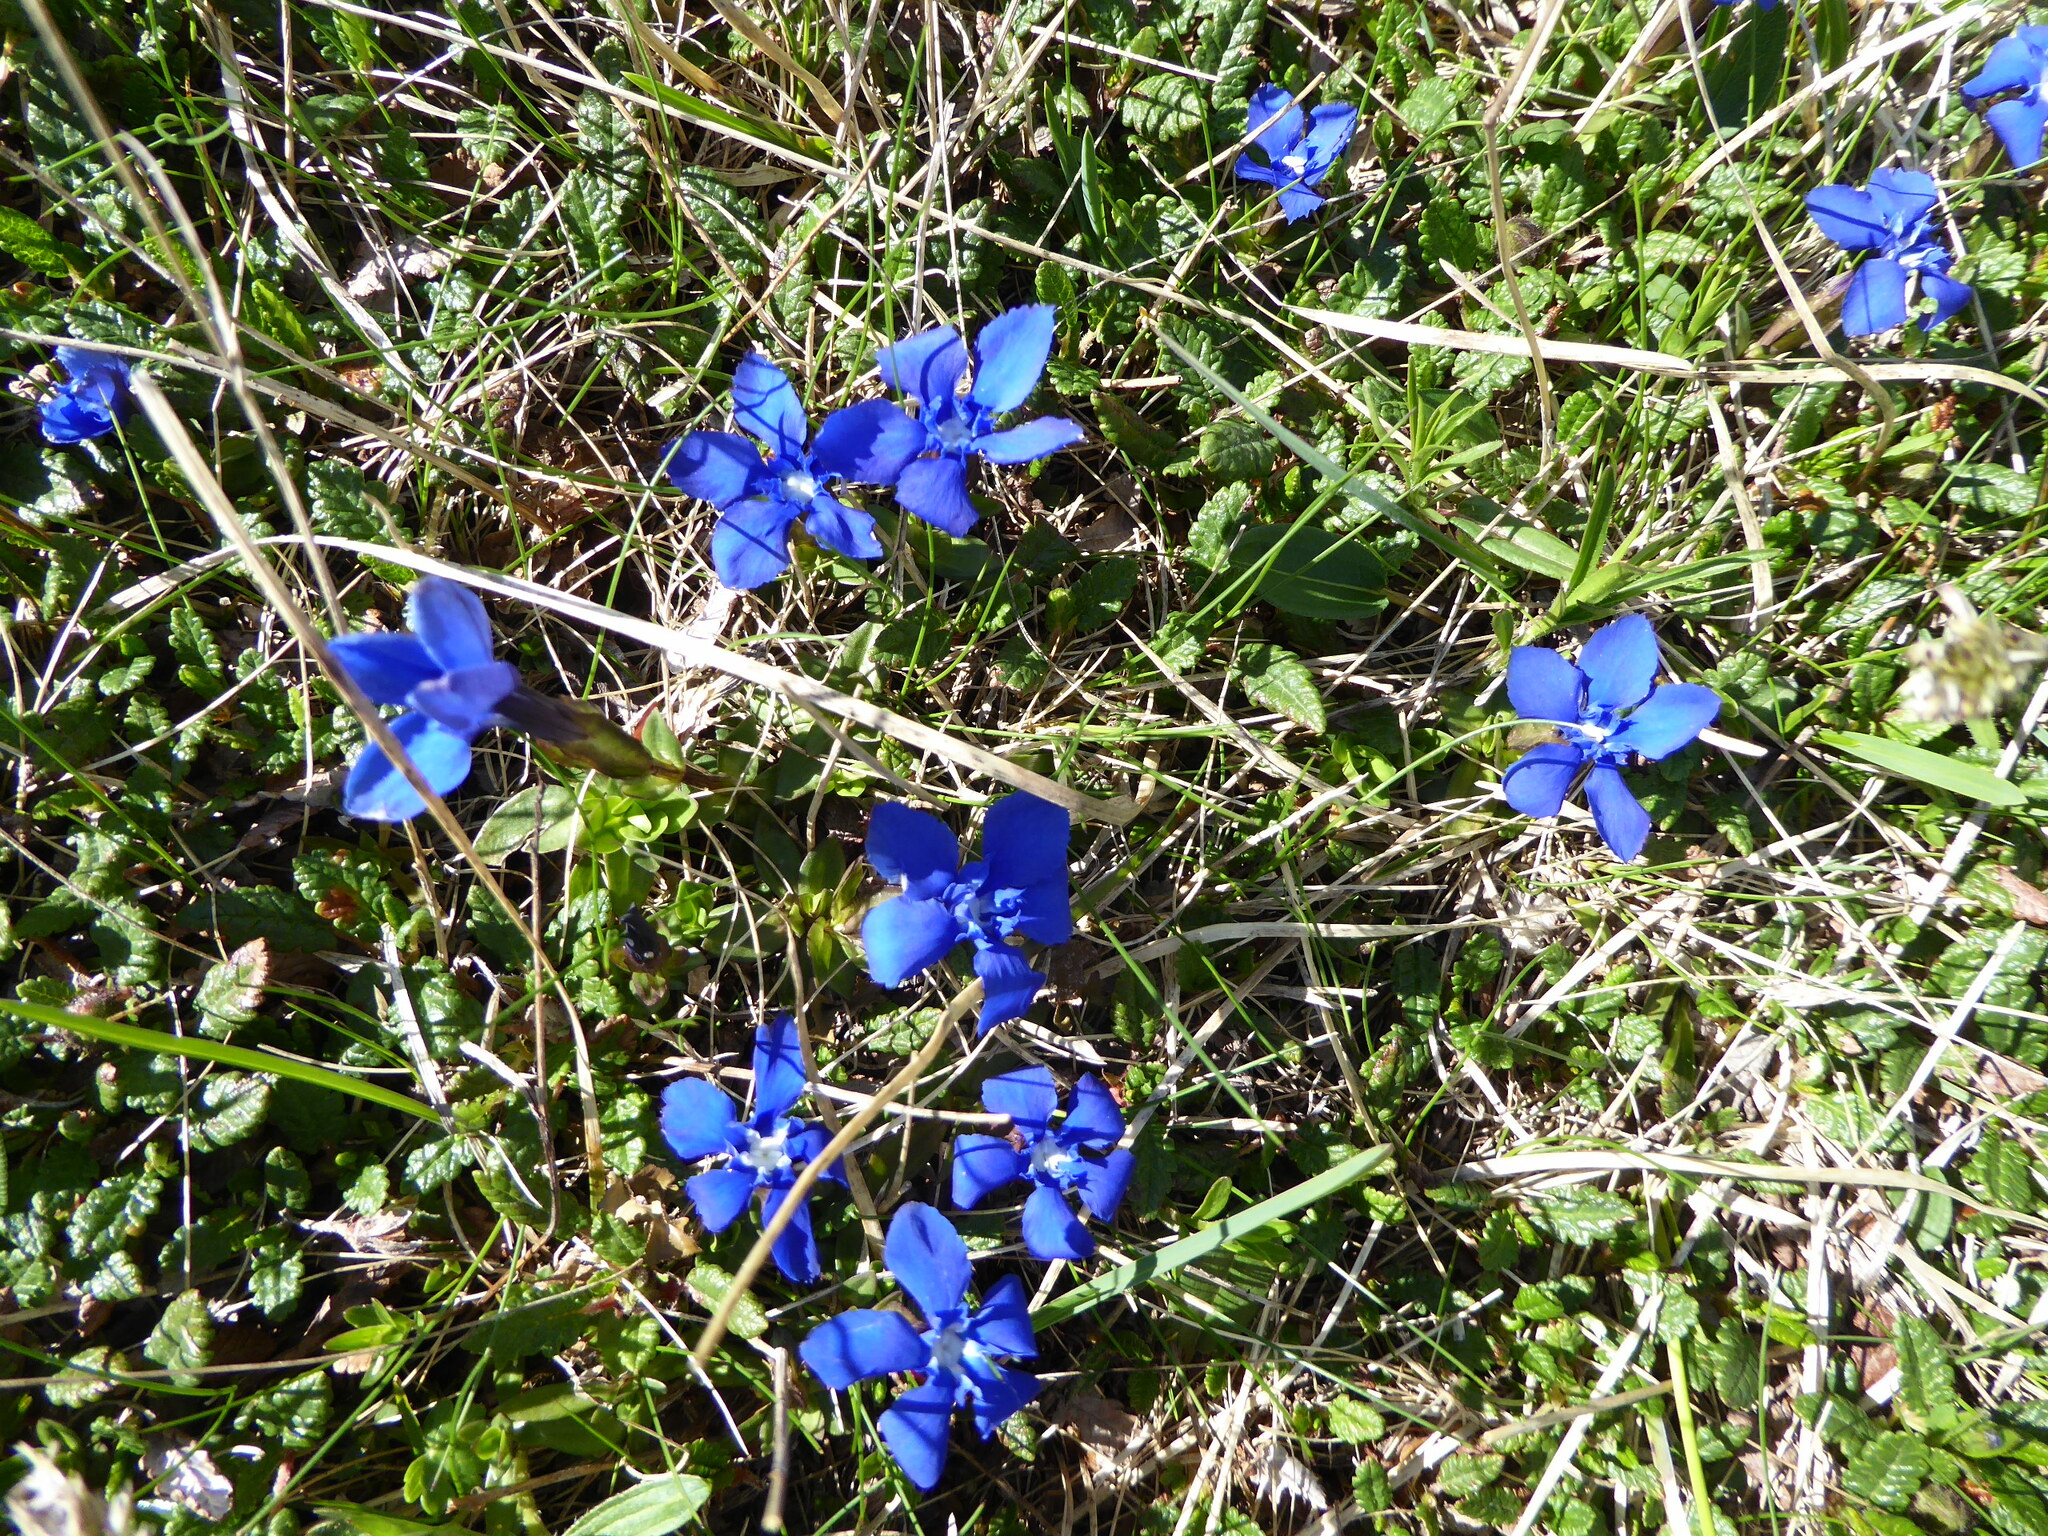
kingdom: Plantae
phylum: Tracheophyta
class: Magnoliopsida
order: Gentianales
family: Gentianaceae
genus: Gentiana
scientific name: Gentiana verna
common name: Spring gentian
